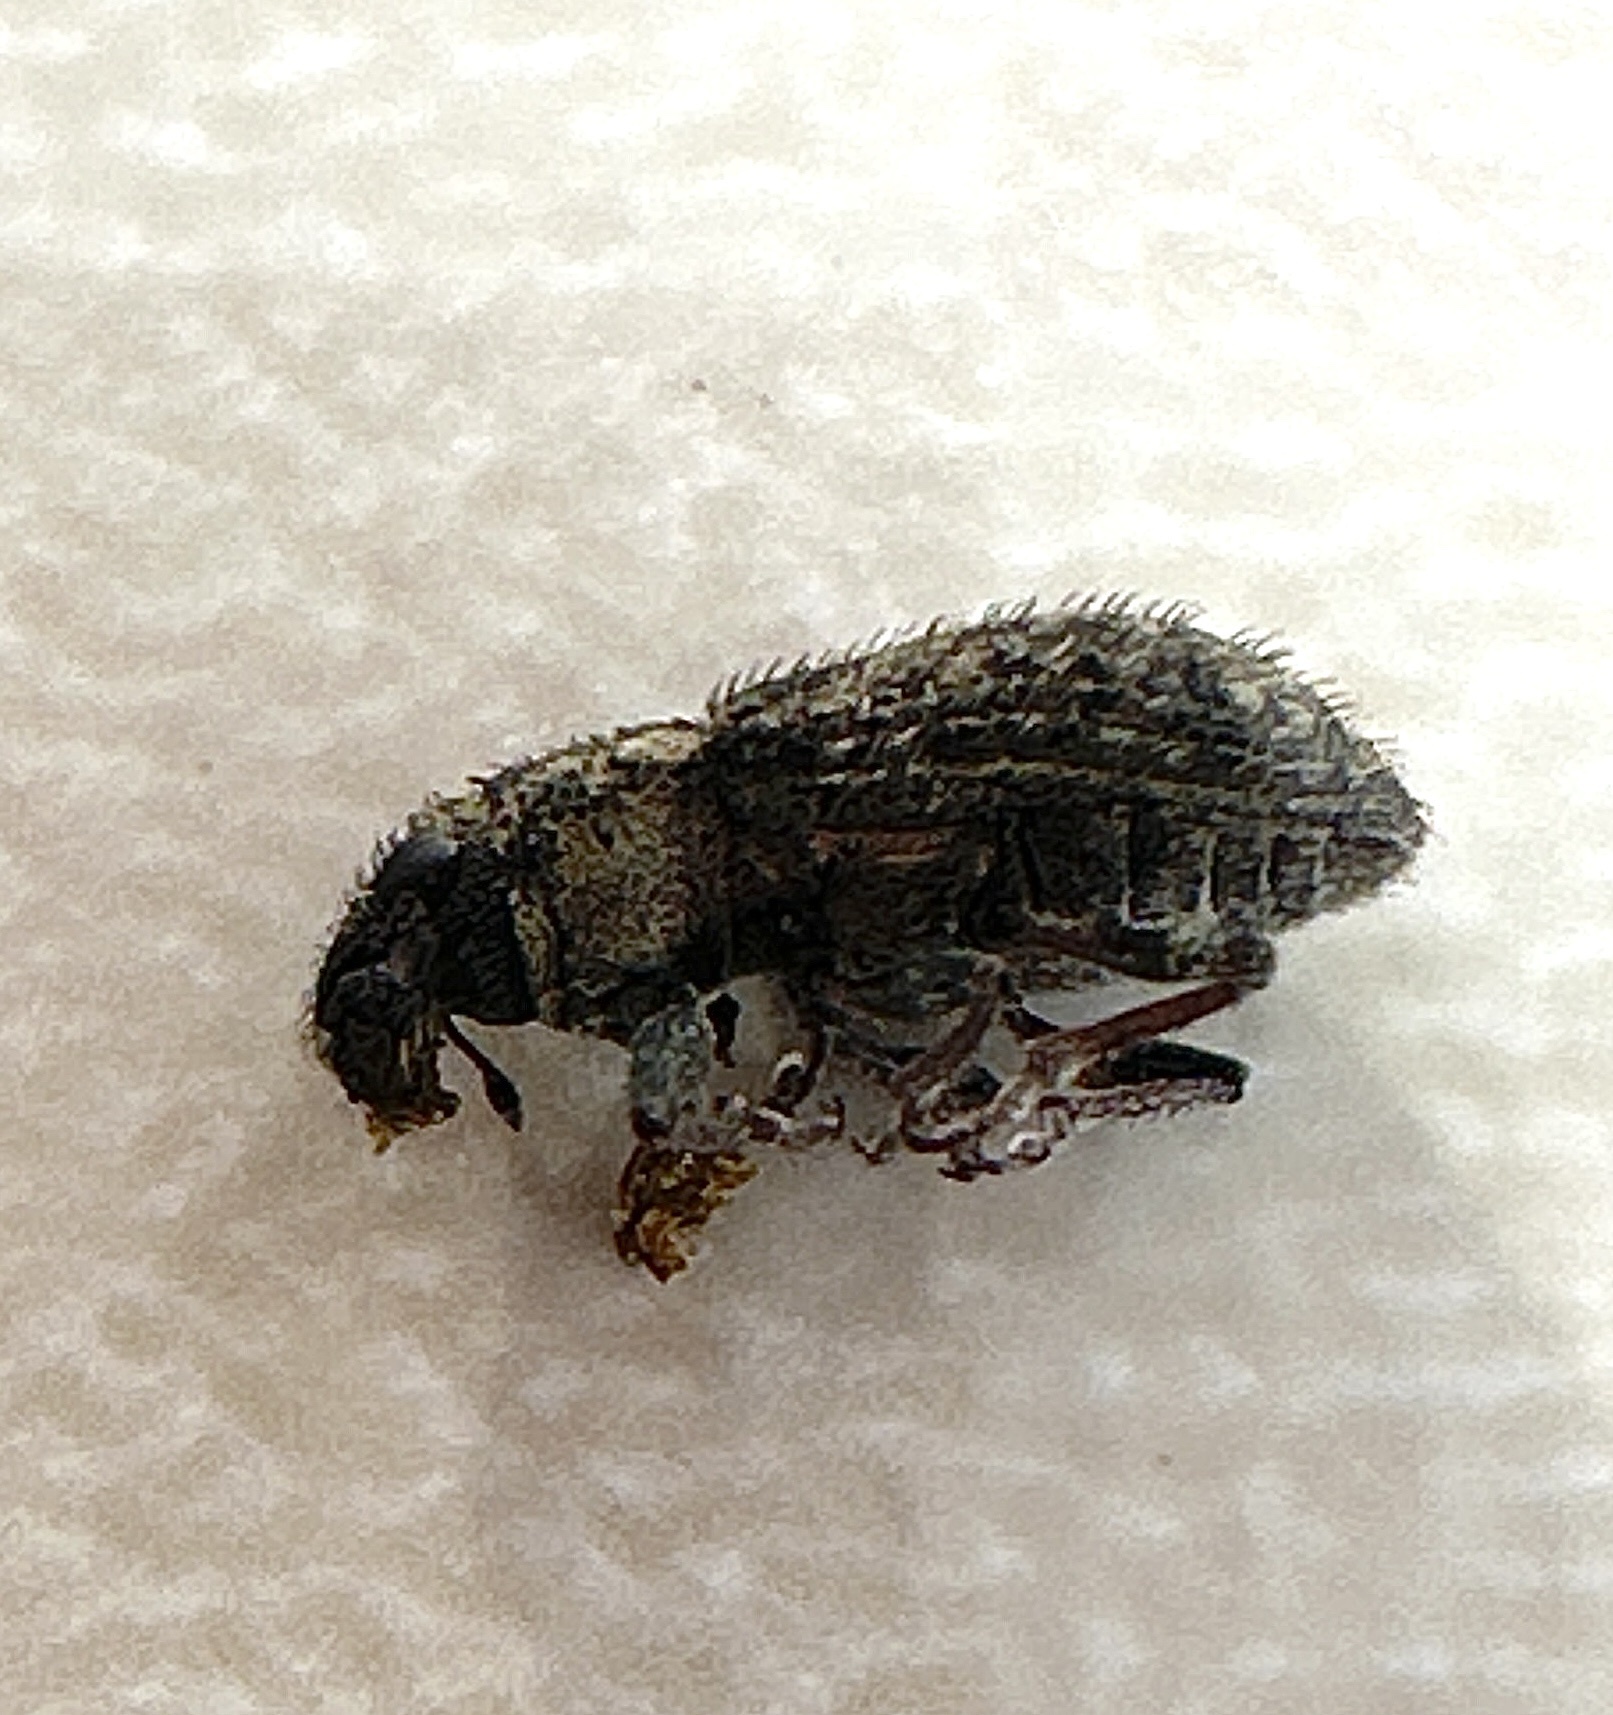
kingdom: Animalia
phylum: Arthropoda
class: Insecta
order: Coleoptera
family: Curculionidae
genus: Sitona
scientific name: Sitona hispidulus
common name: Clover weevil
